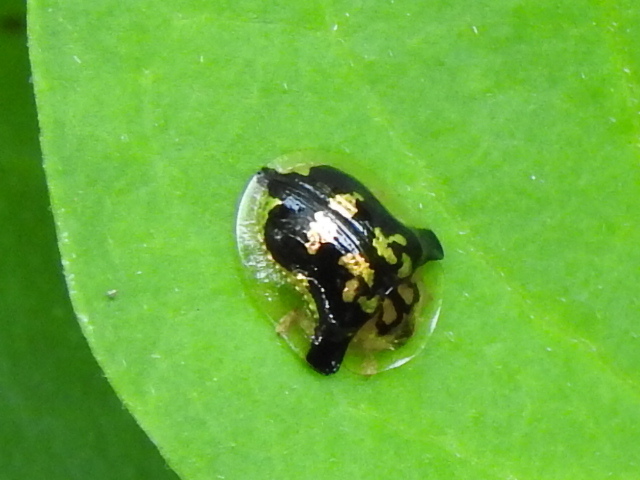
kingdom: Animalia
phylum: Arthropoda
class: Insecta
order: Coleoptera
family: Chrysomelidae
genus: Deloyala
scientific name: Deloyala guttata
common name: Mottled tortoise beetle
